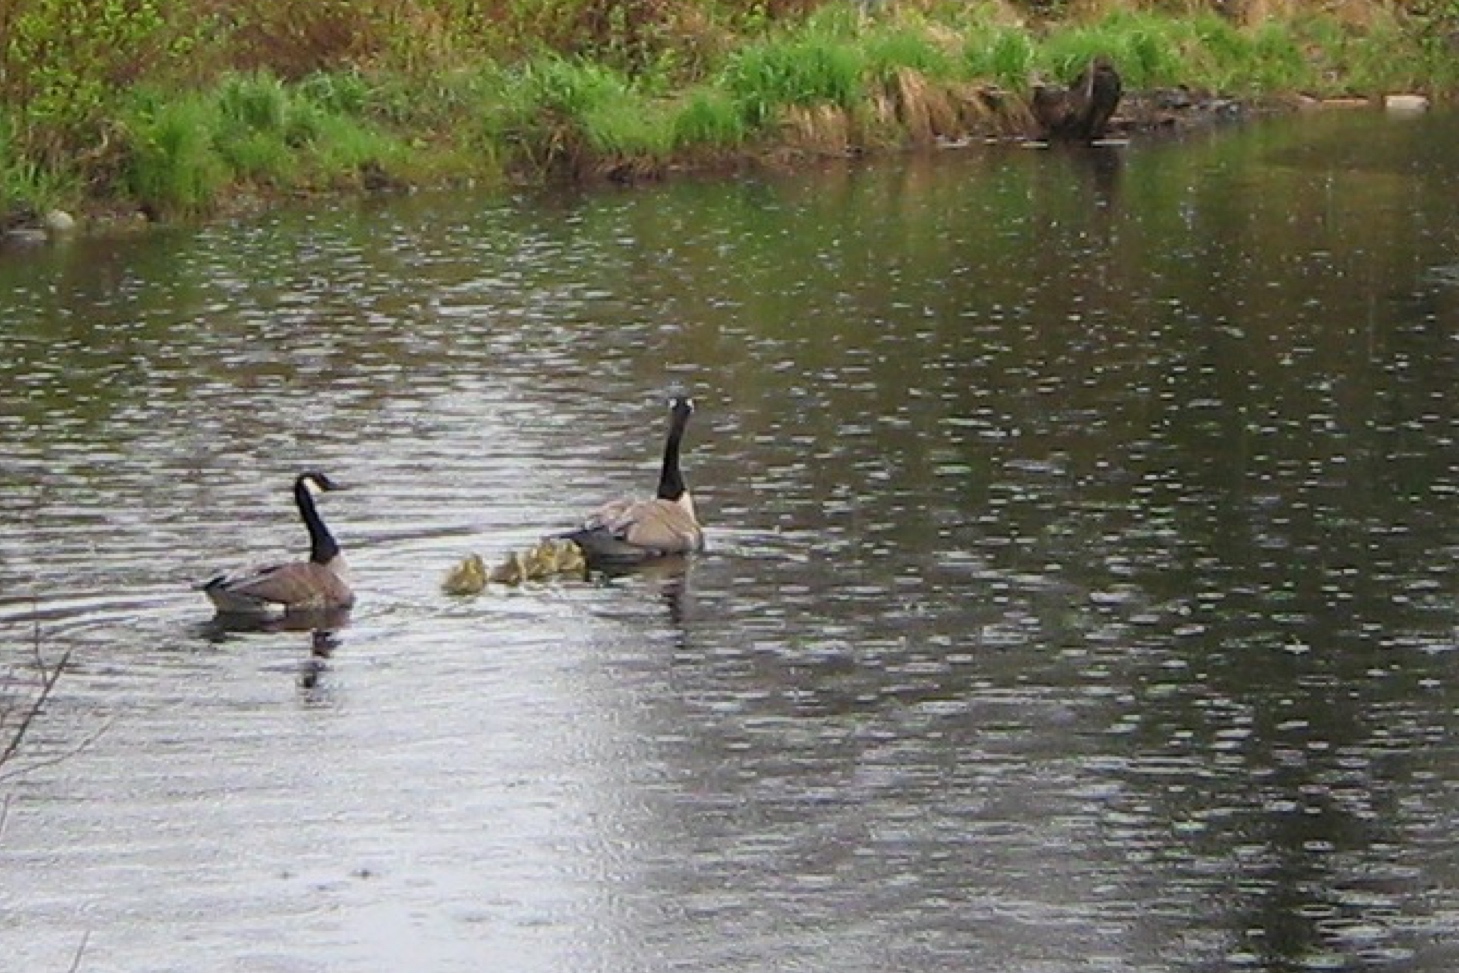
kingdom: Animalia
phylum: Chordata
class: Aves
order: Anseriformes
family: Anatidae
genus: Branta
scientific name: Branta canadensis
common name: Canada goose
